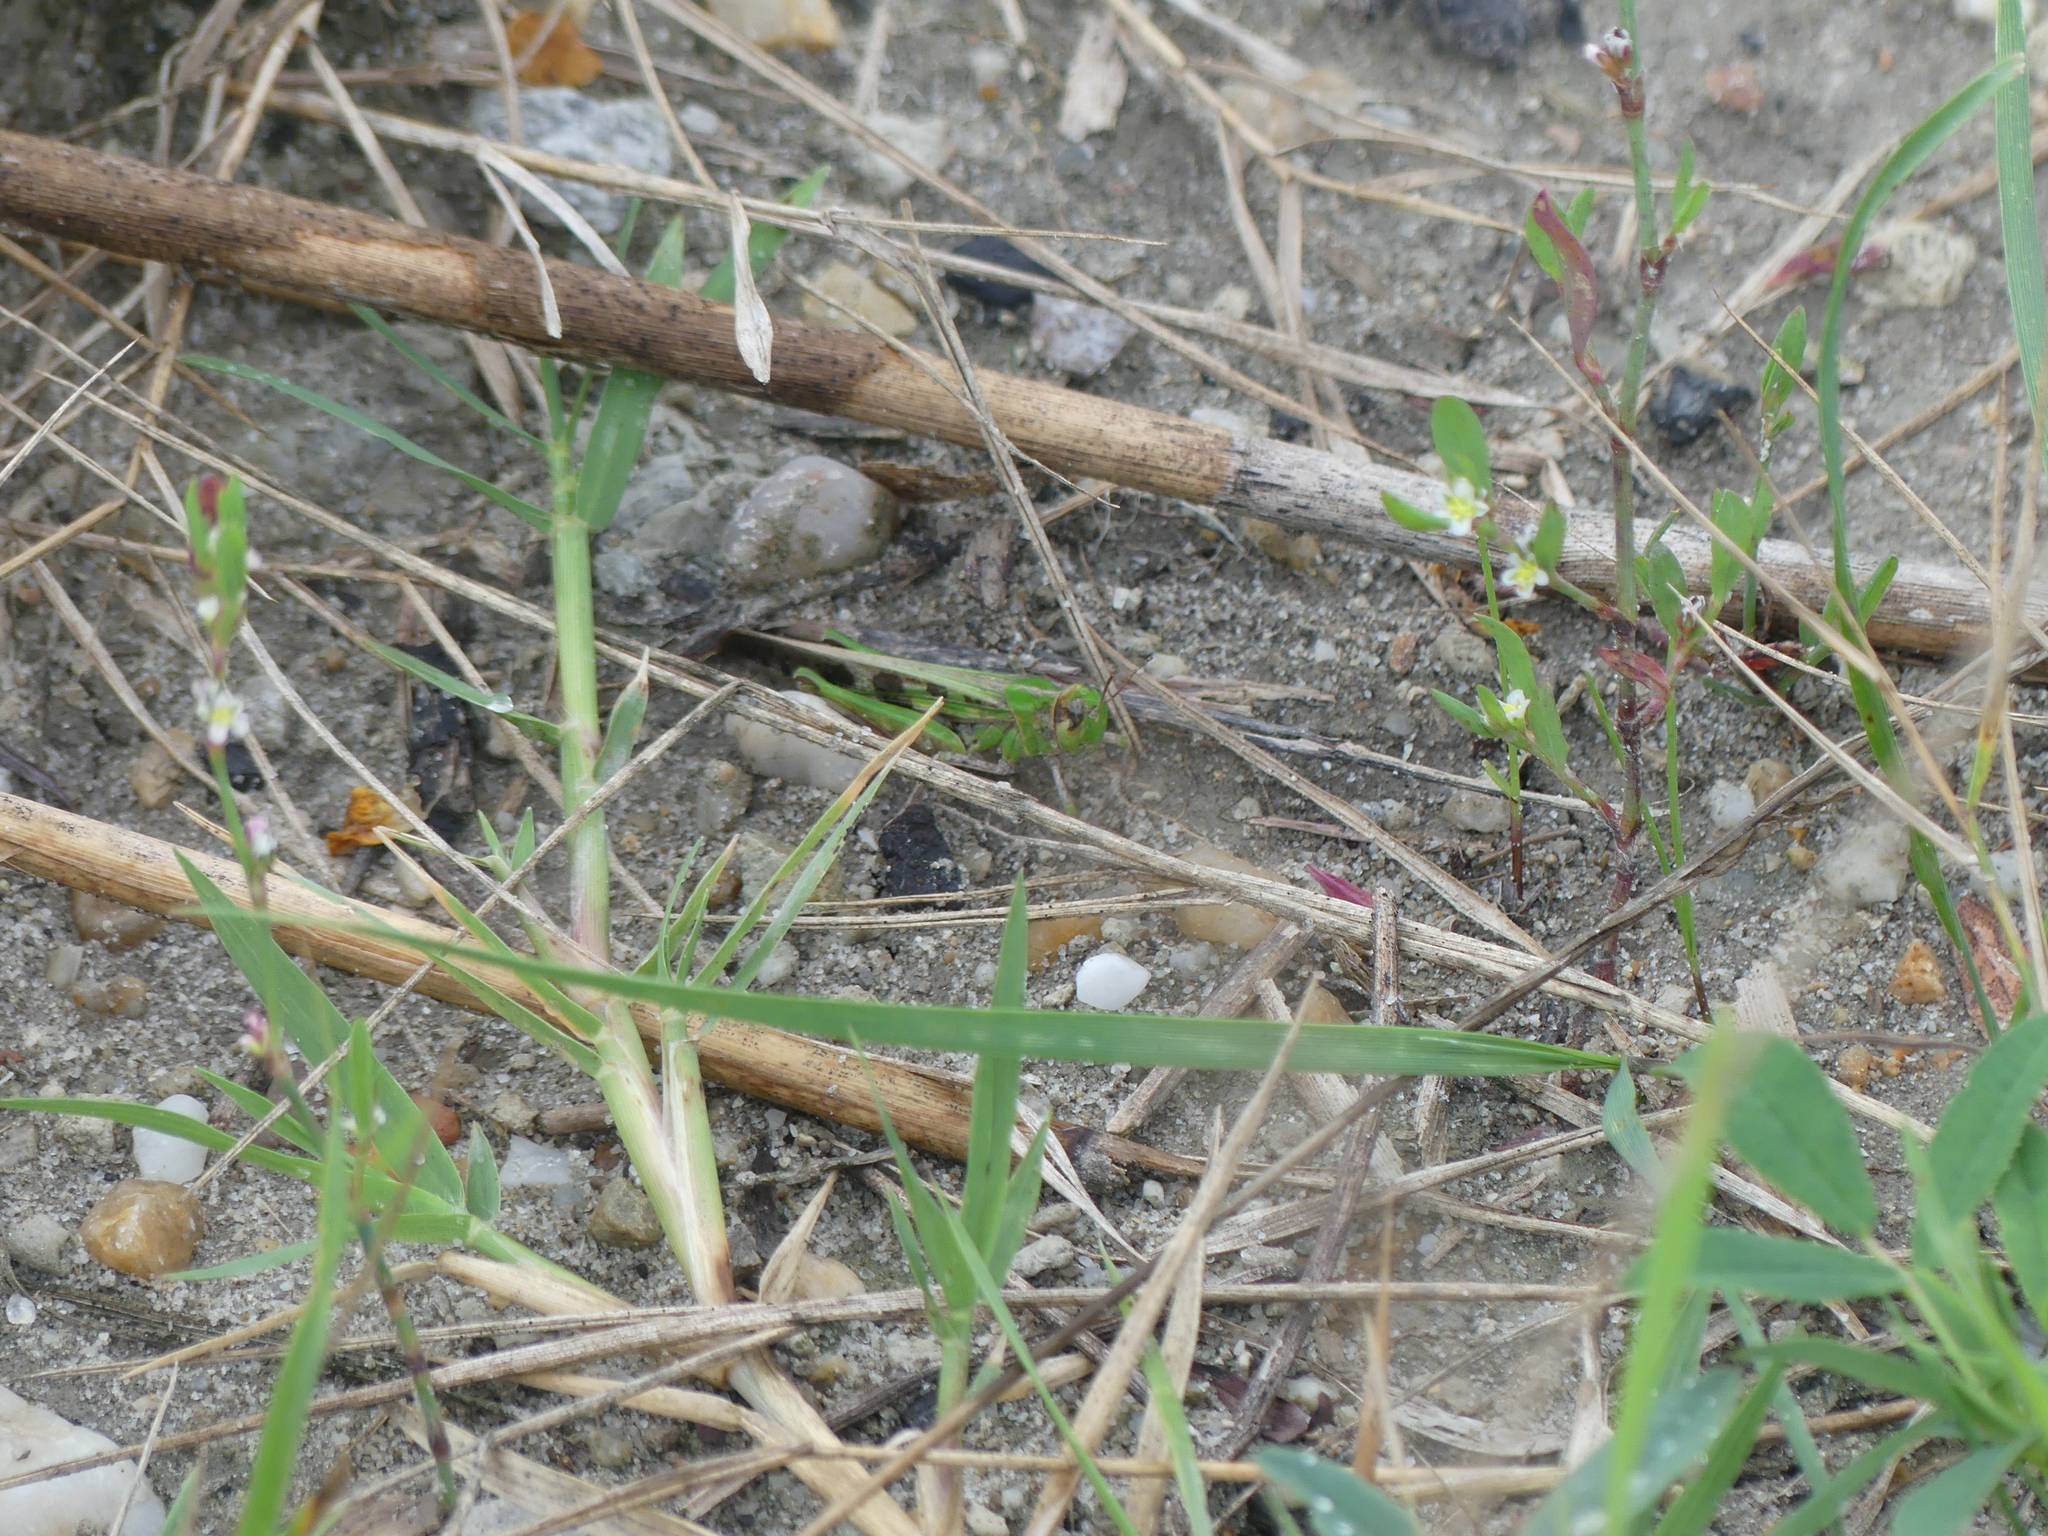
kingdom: Animalia
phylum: Arthropoda
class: Insecta
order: Orthoptera
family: Acrididae
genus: Aiolopus
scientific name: Aiolopus thalassinus
